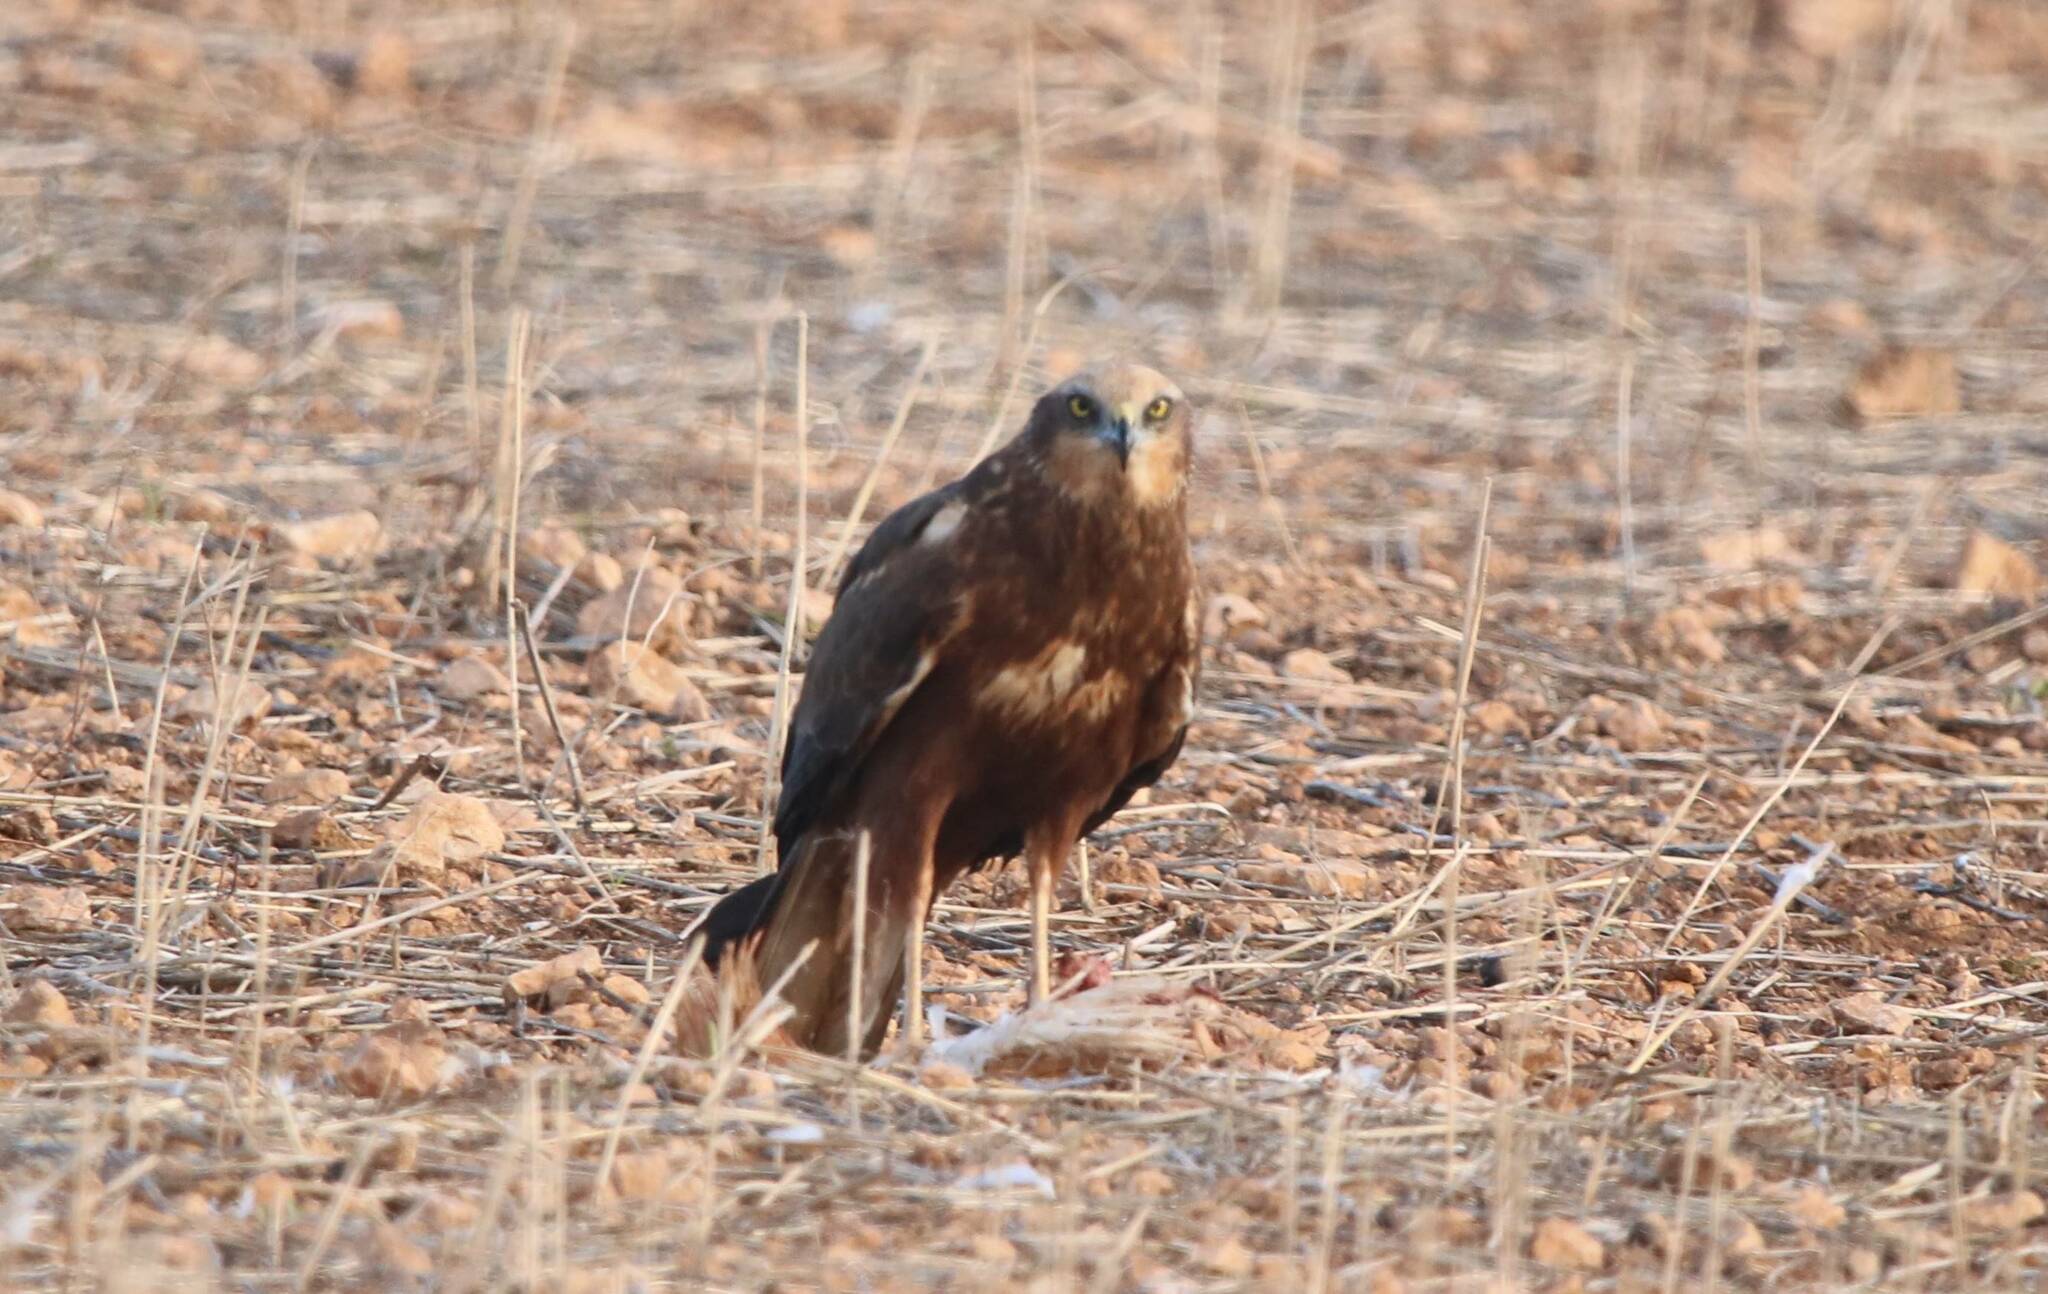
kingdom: Animalia
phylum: Chordata
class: Aves
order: Accipitriformes
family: Accipitridae
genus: Circus
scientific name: Circus aeruginosus
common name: Western marsh harrier
